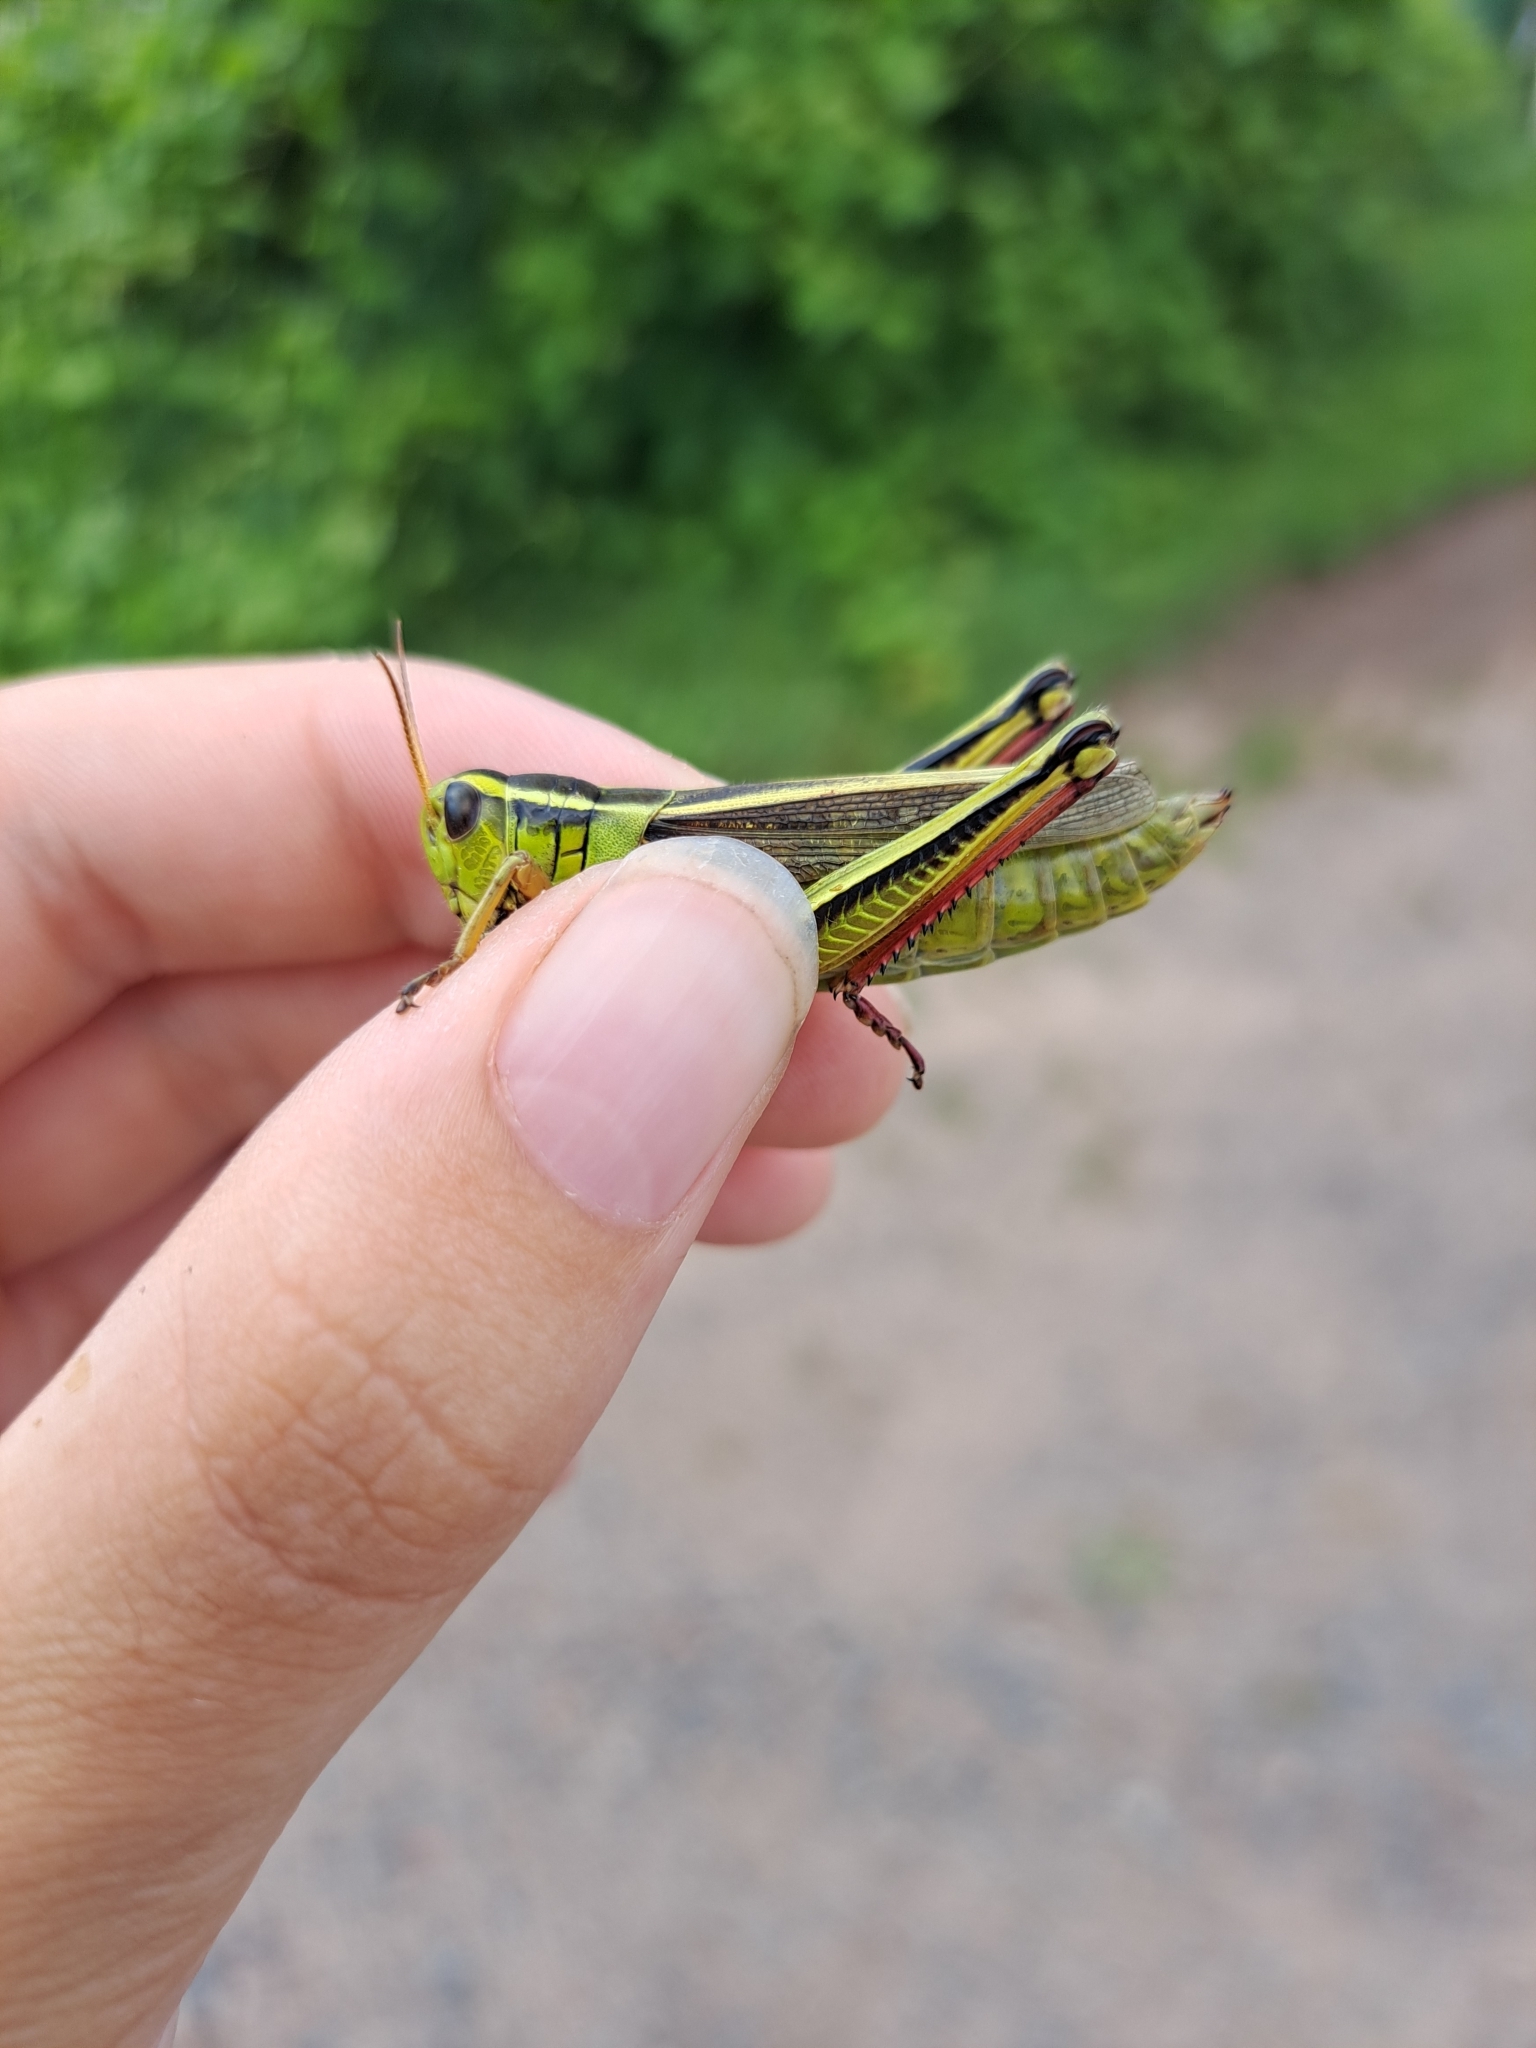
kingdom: Animalia
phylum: Arthropoda
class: Insecta
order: Orthoptera
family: Acrididae
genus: Melanoplus
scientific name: Melanoplus bivittatus
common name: Two-striped grasshopper
